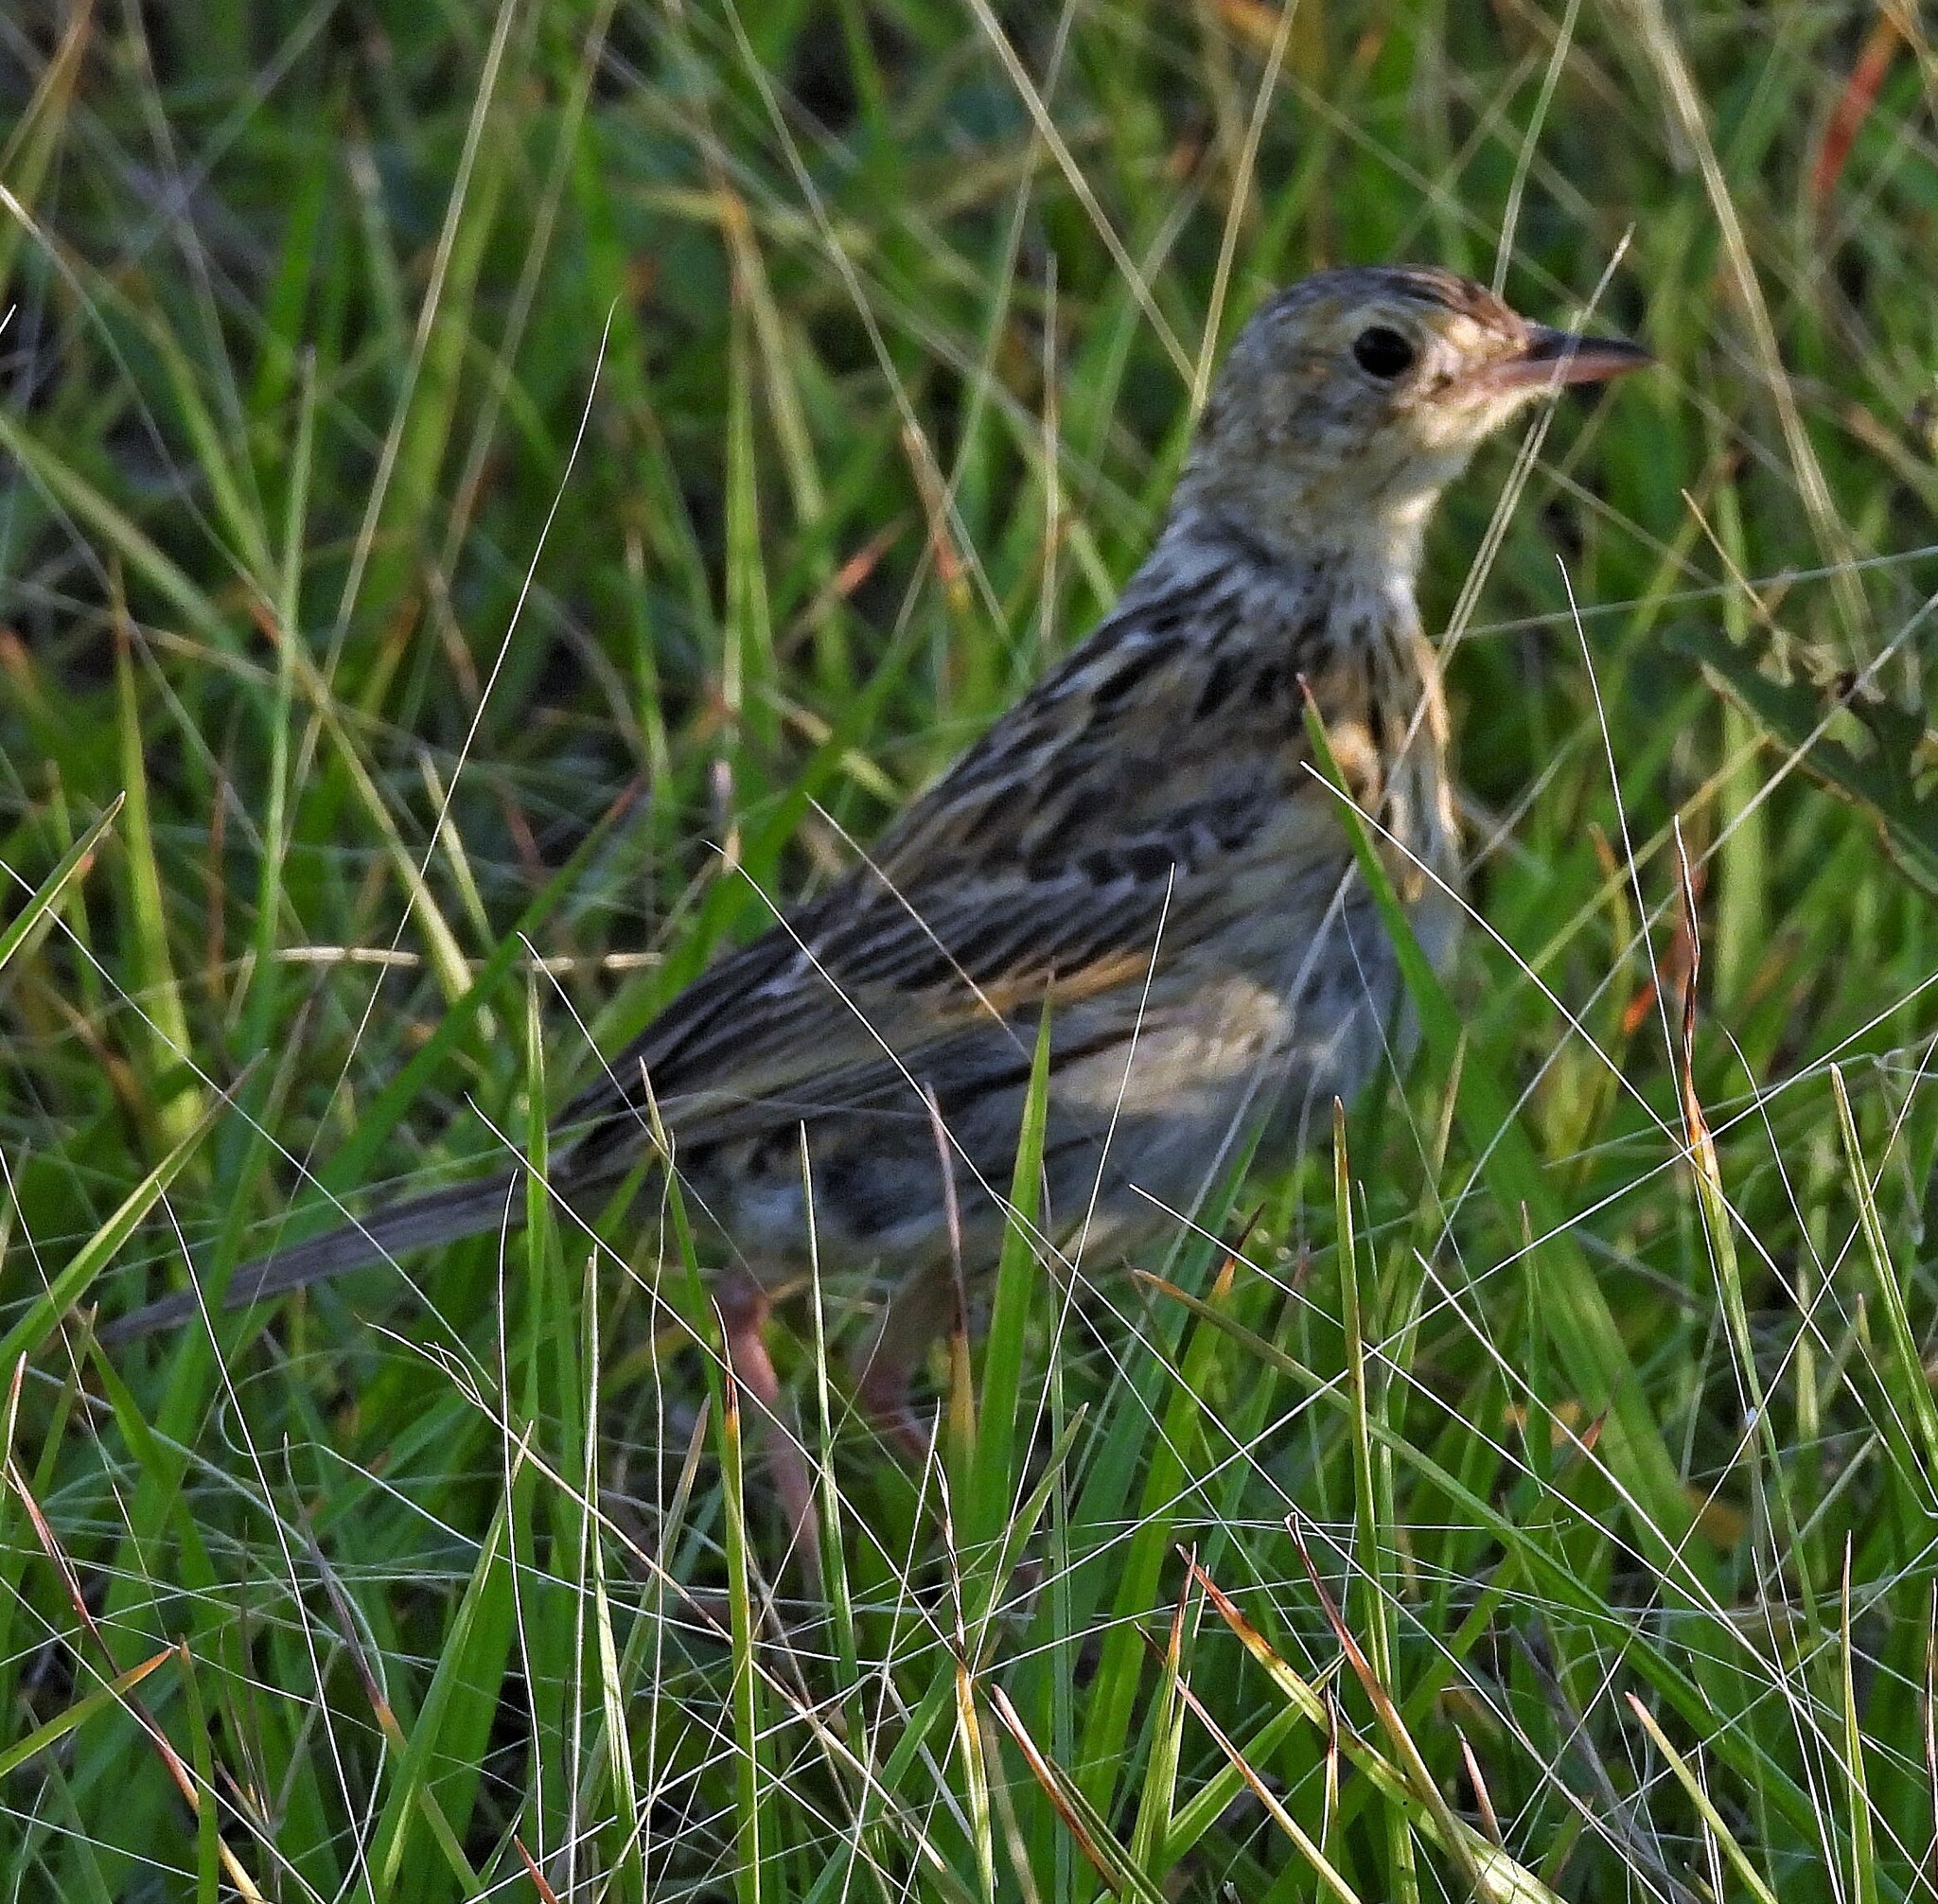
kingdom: Animalia
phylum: Chordata
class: Aves
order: Passeriformes
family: Motacillidae
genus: Anthus
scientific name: Anthus nattereri
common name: Ochre-breasted pipit
